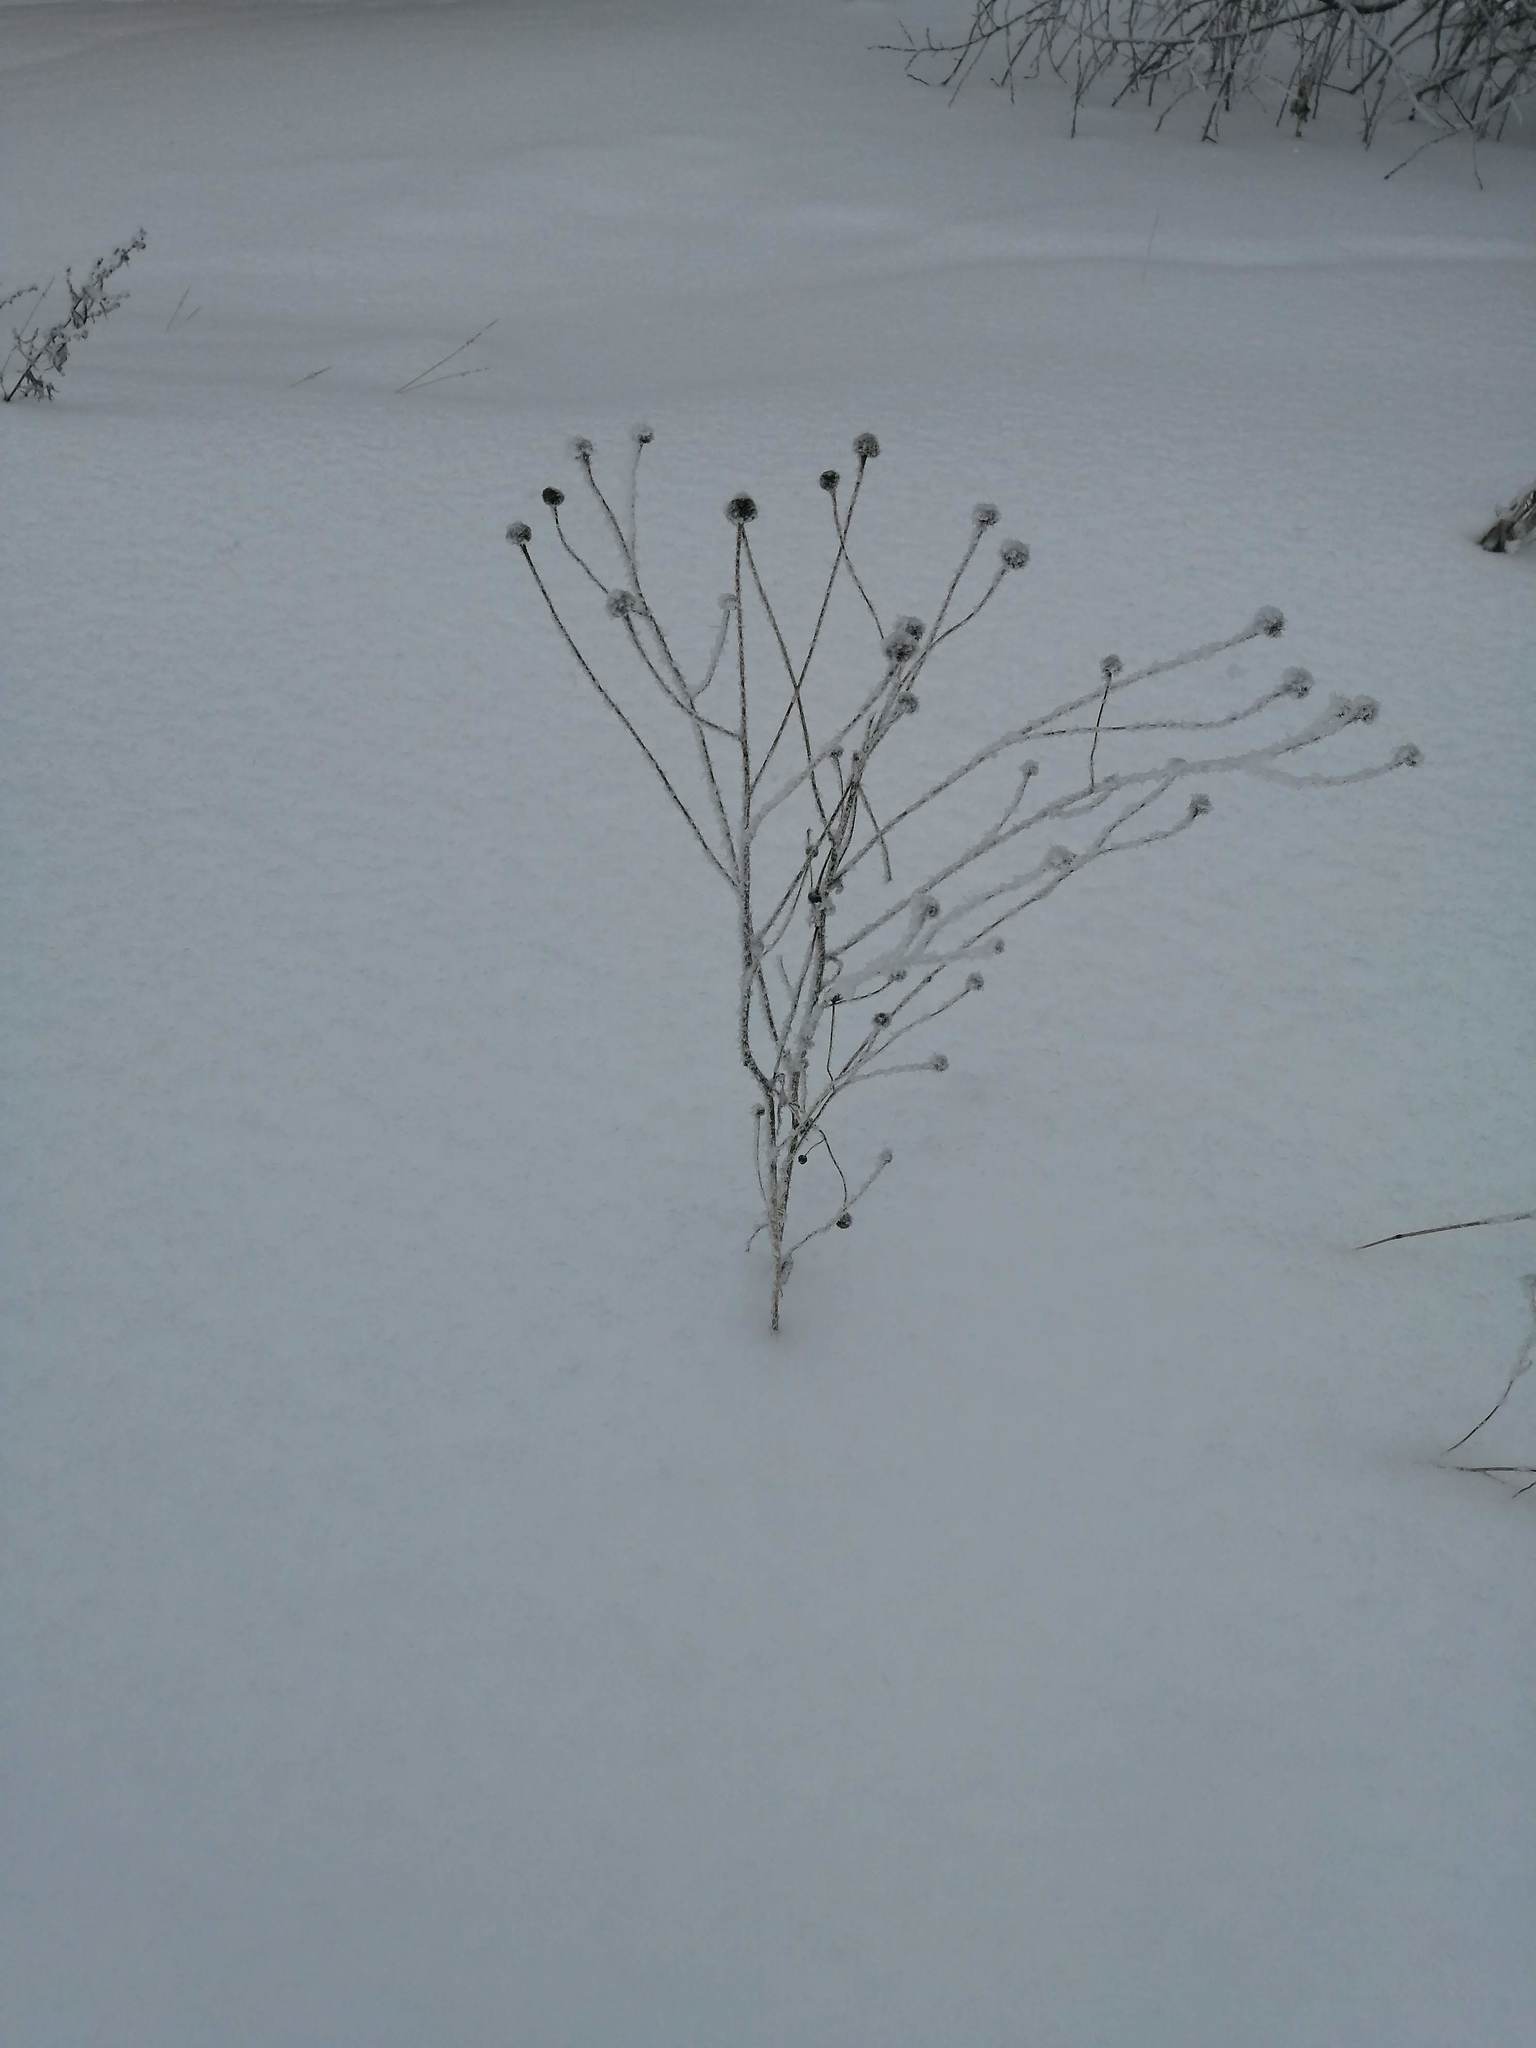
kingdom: Plantae
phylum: Tracheophyta
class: Magnoliopsida
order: Asterales
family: Asteraceae
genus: Tripleurospermum
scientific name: Tripleurospermum inodorum
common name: Scentless mayweed
